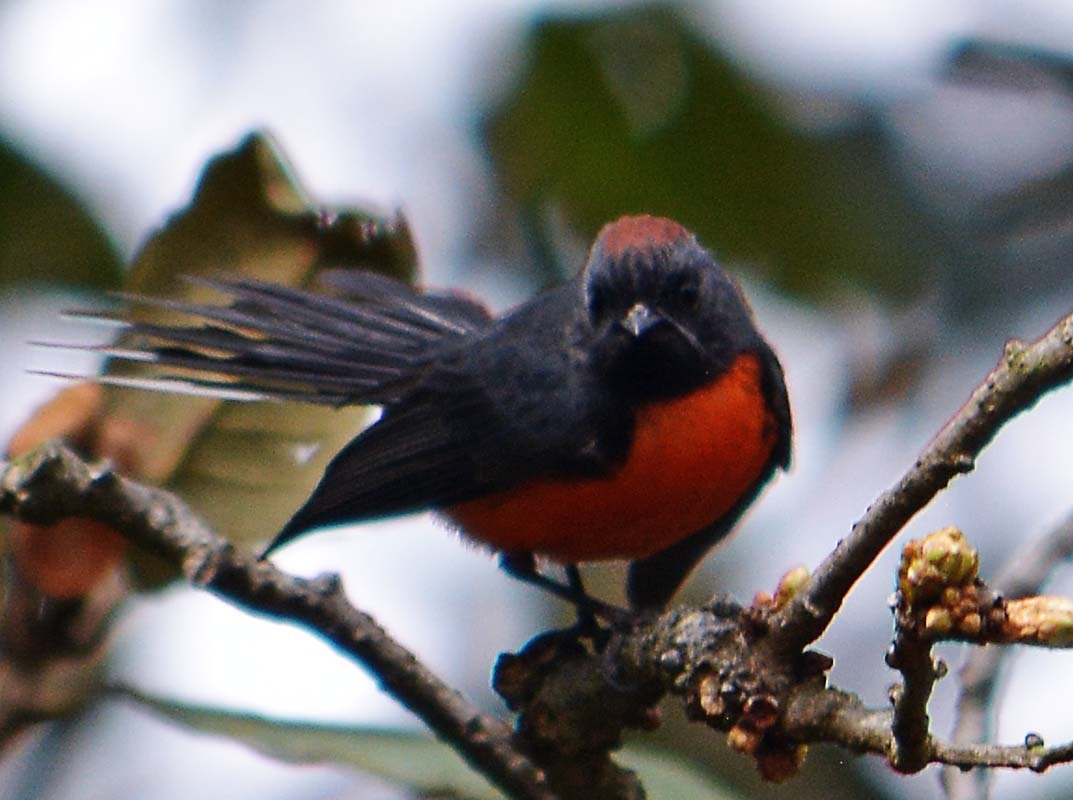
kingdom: Animalia
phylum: Chordata
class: Aves
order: Passeriformes
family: Parulidae
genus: Myioborus
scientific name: Myioborus miniatus
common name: Slate-throated redstart
